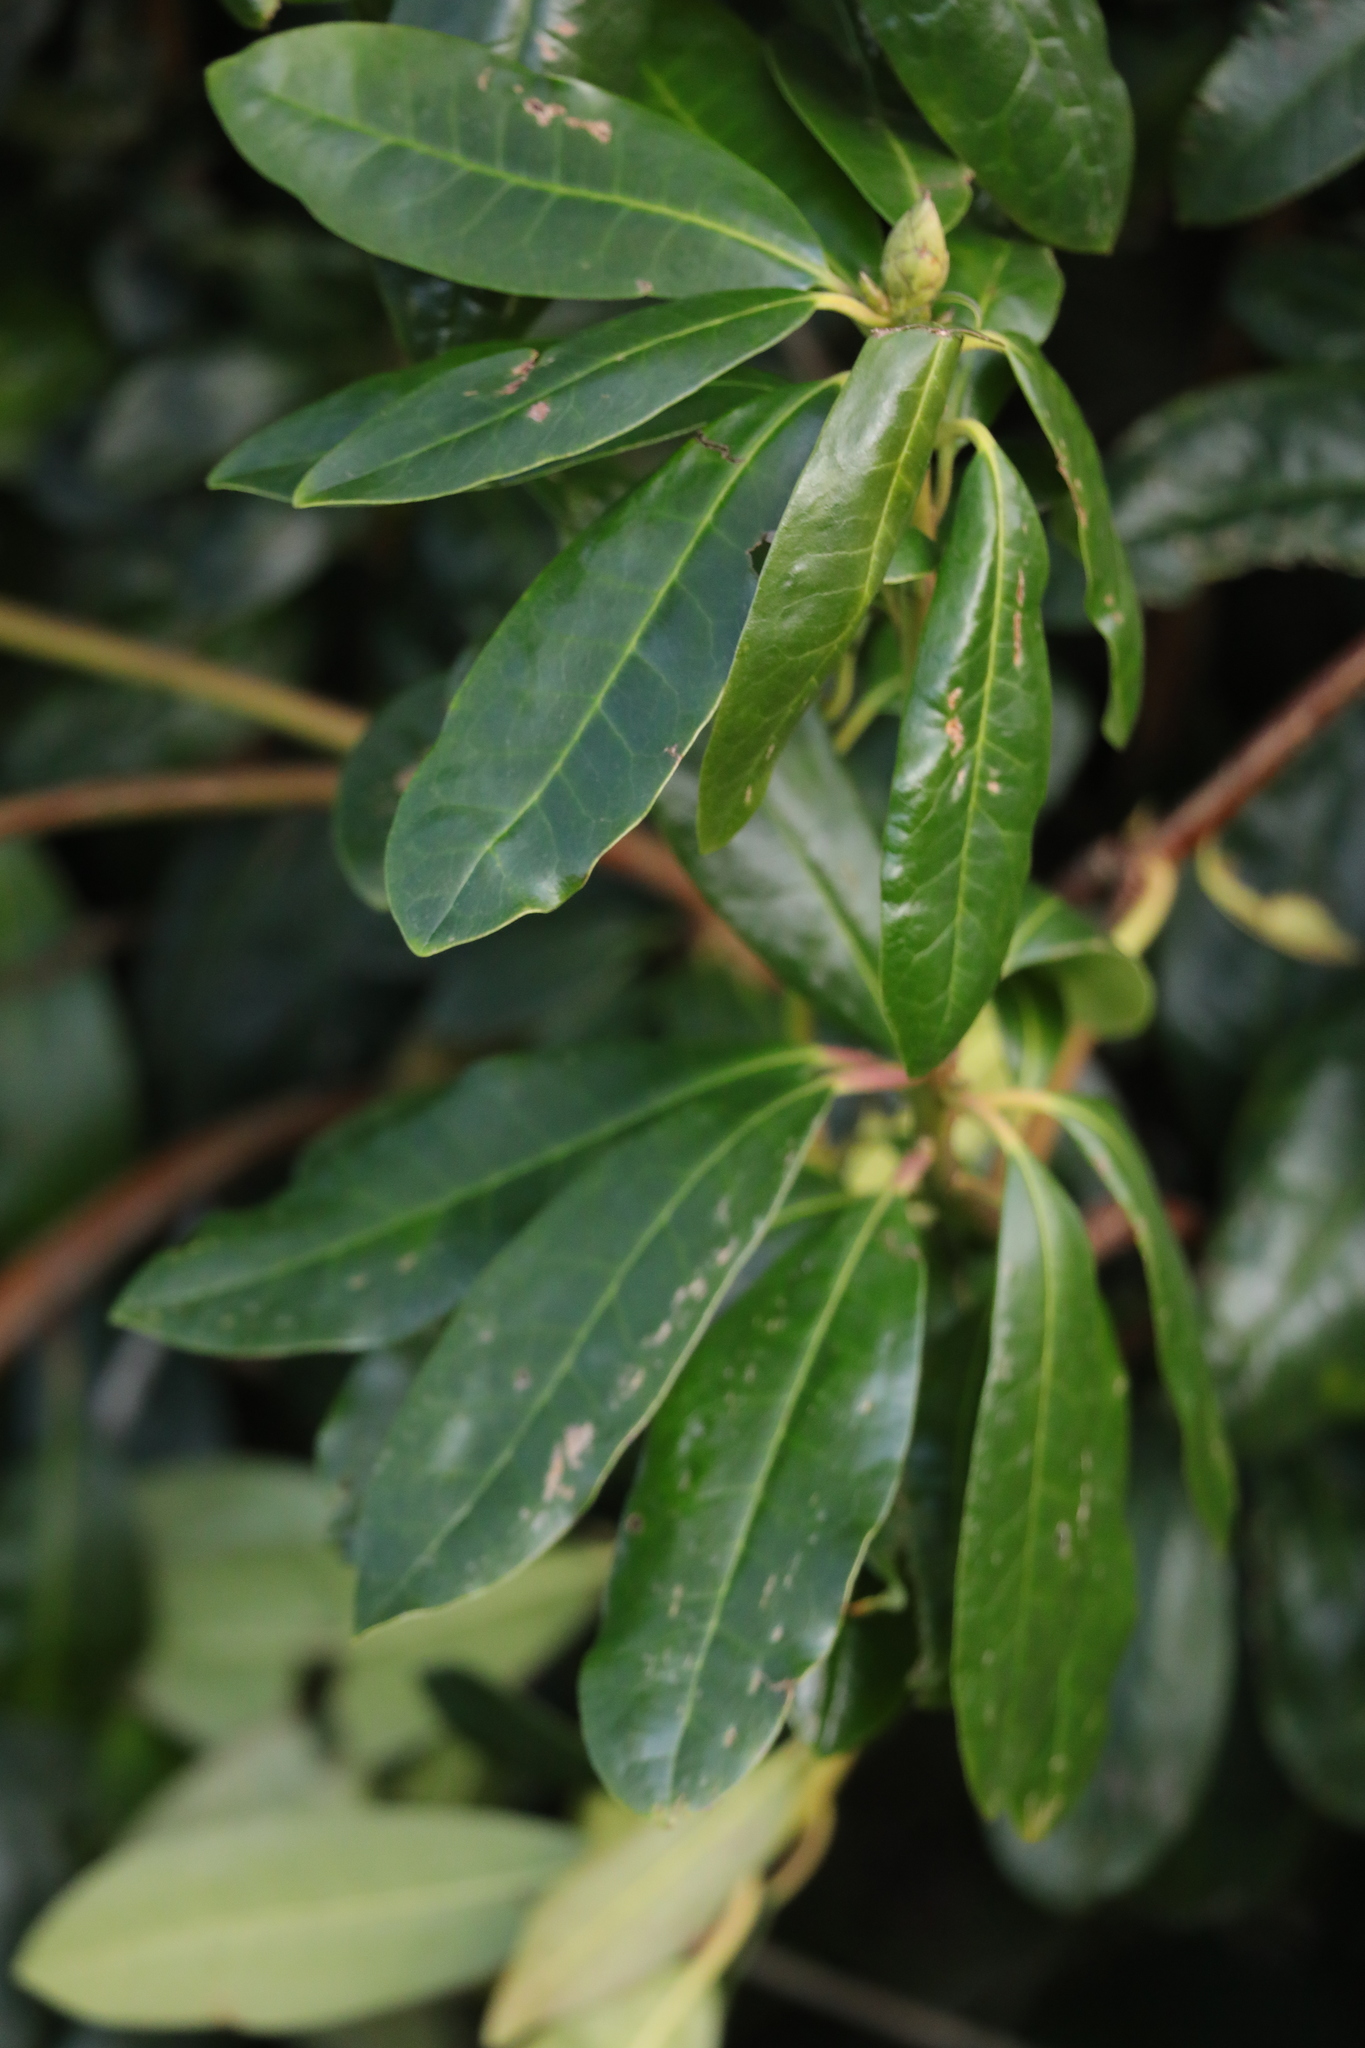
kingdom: Plantae
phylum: Tracheophyta
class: Magnoliopsida
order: Ericales
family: Ericaceae
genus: Rhododendron
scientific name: Rhododendron ponticum
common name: Rhododendron
